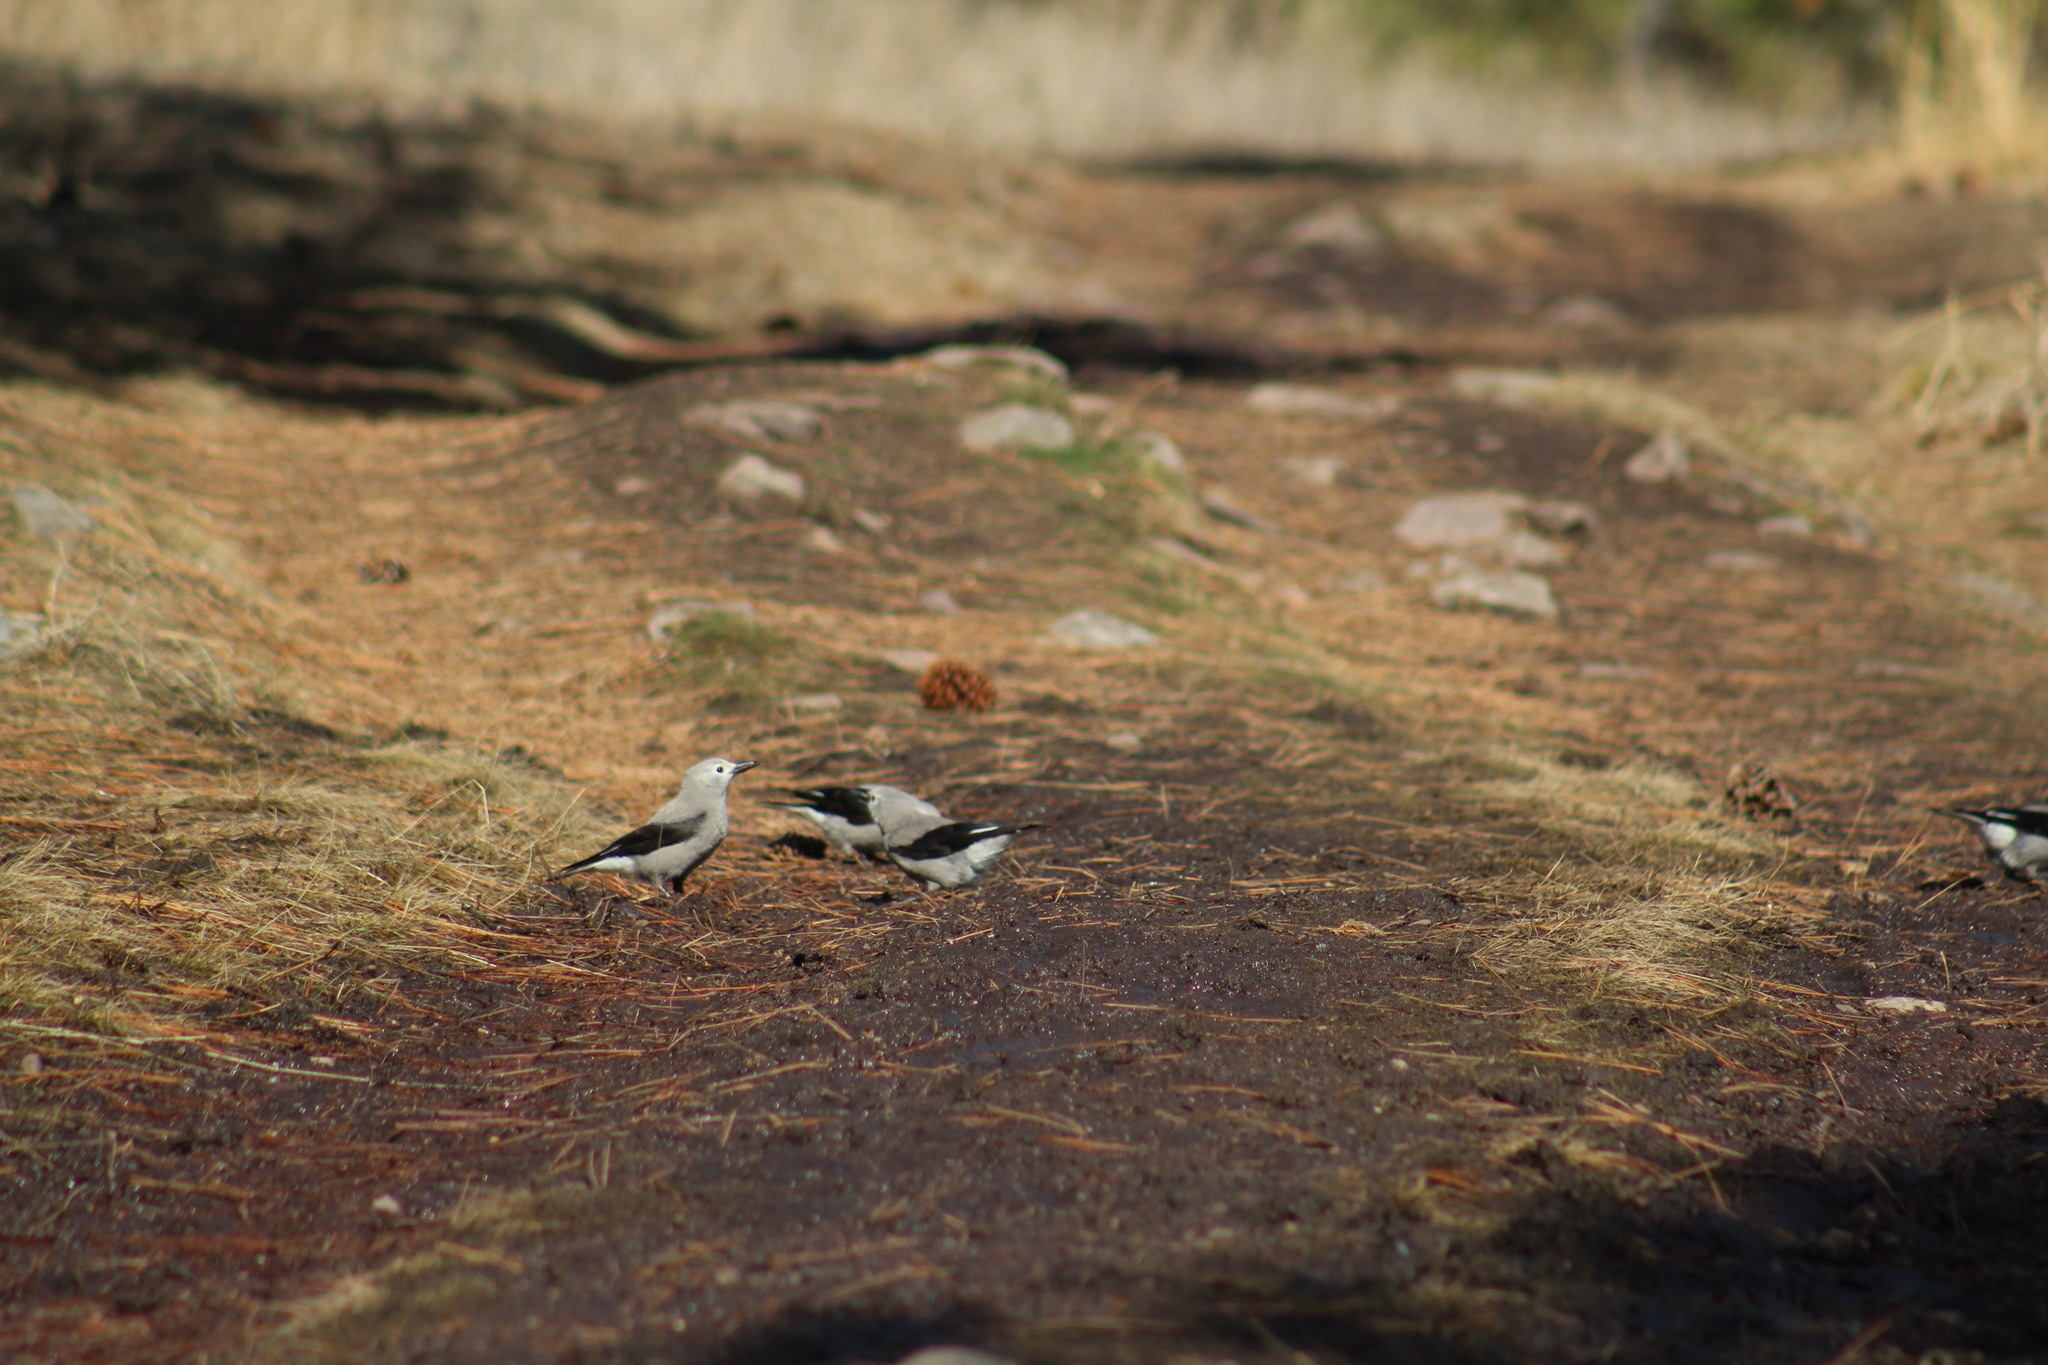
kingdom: Animalia
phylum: Chordata
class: Aves
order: Passeriformes
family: Corvidae
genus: Nucifraga
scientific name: Nucifraga columbiana
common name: Clark's nutcracker
